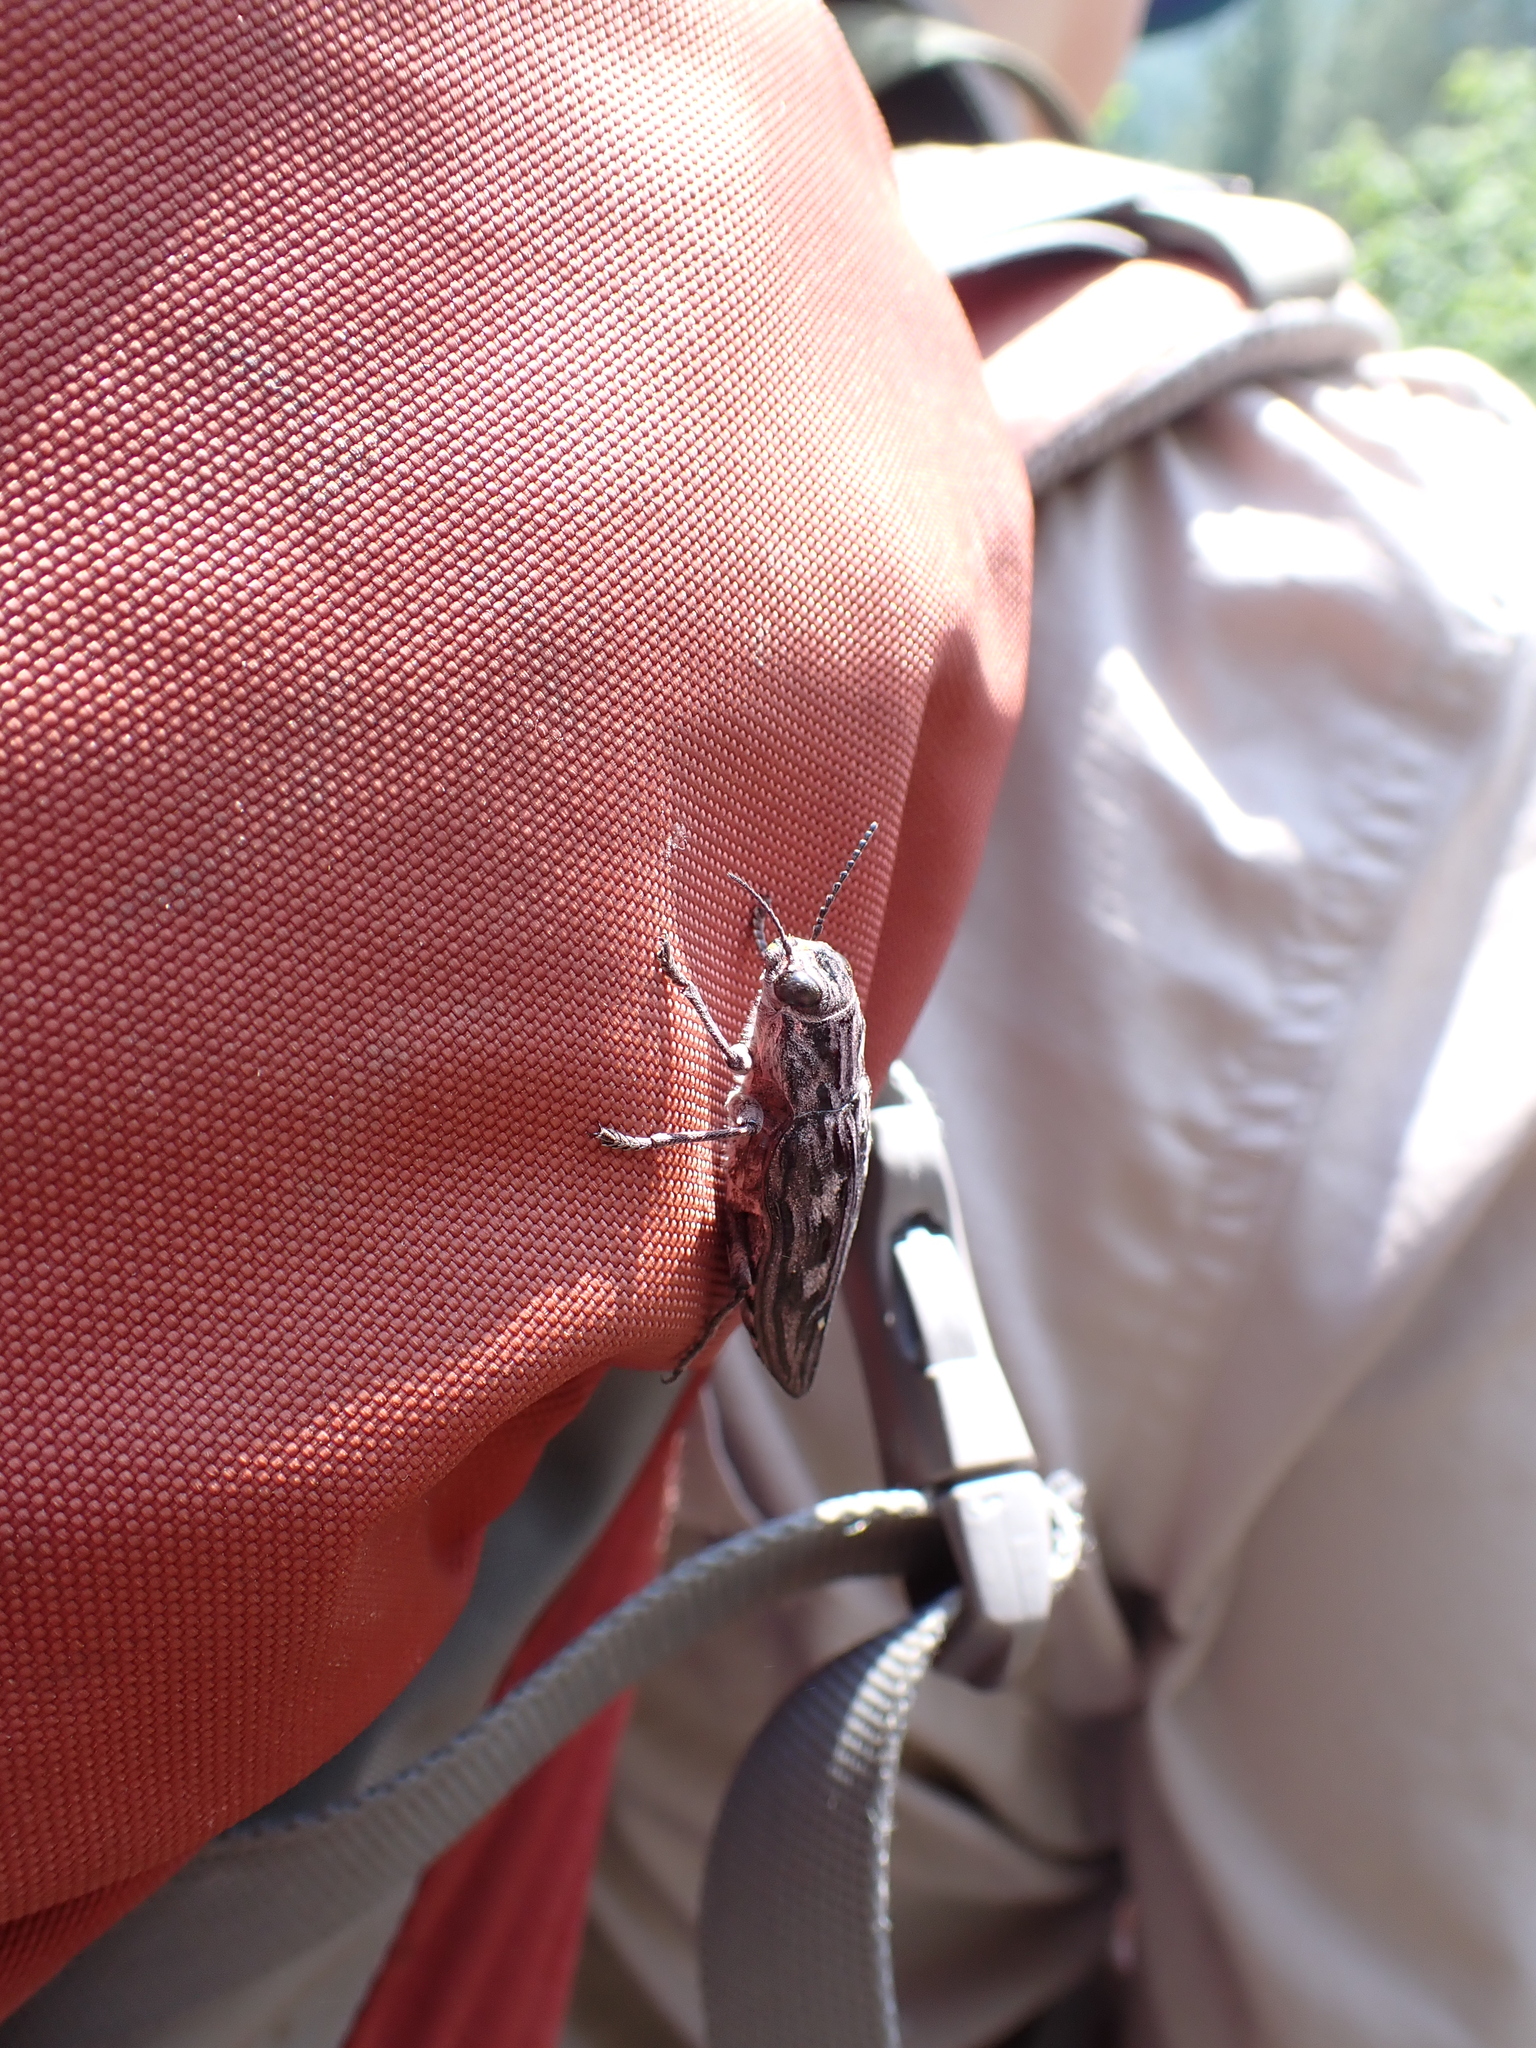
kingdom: Animalia
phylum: Arthropoda
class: Insecta
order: Coleoptera
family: Buprestidae
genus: Chalcophora
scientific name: Chalcophora angulicollis
